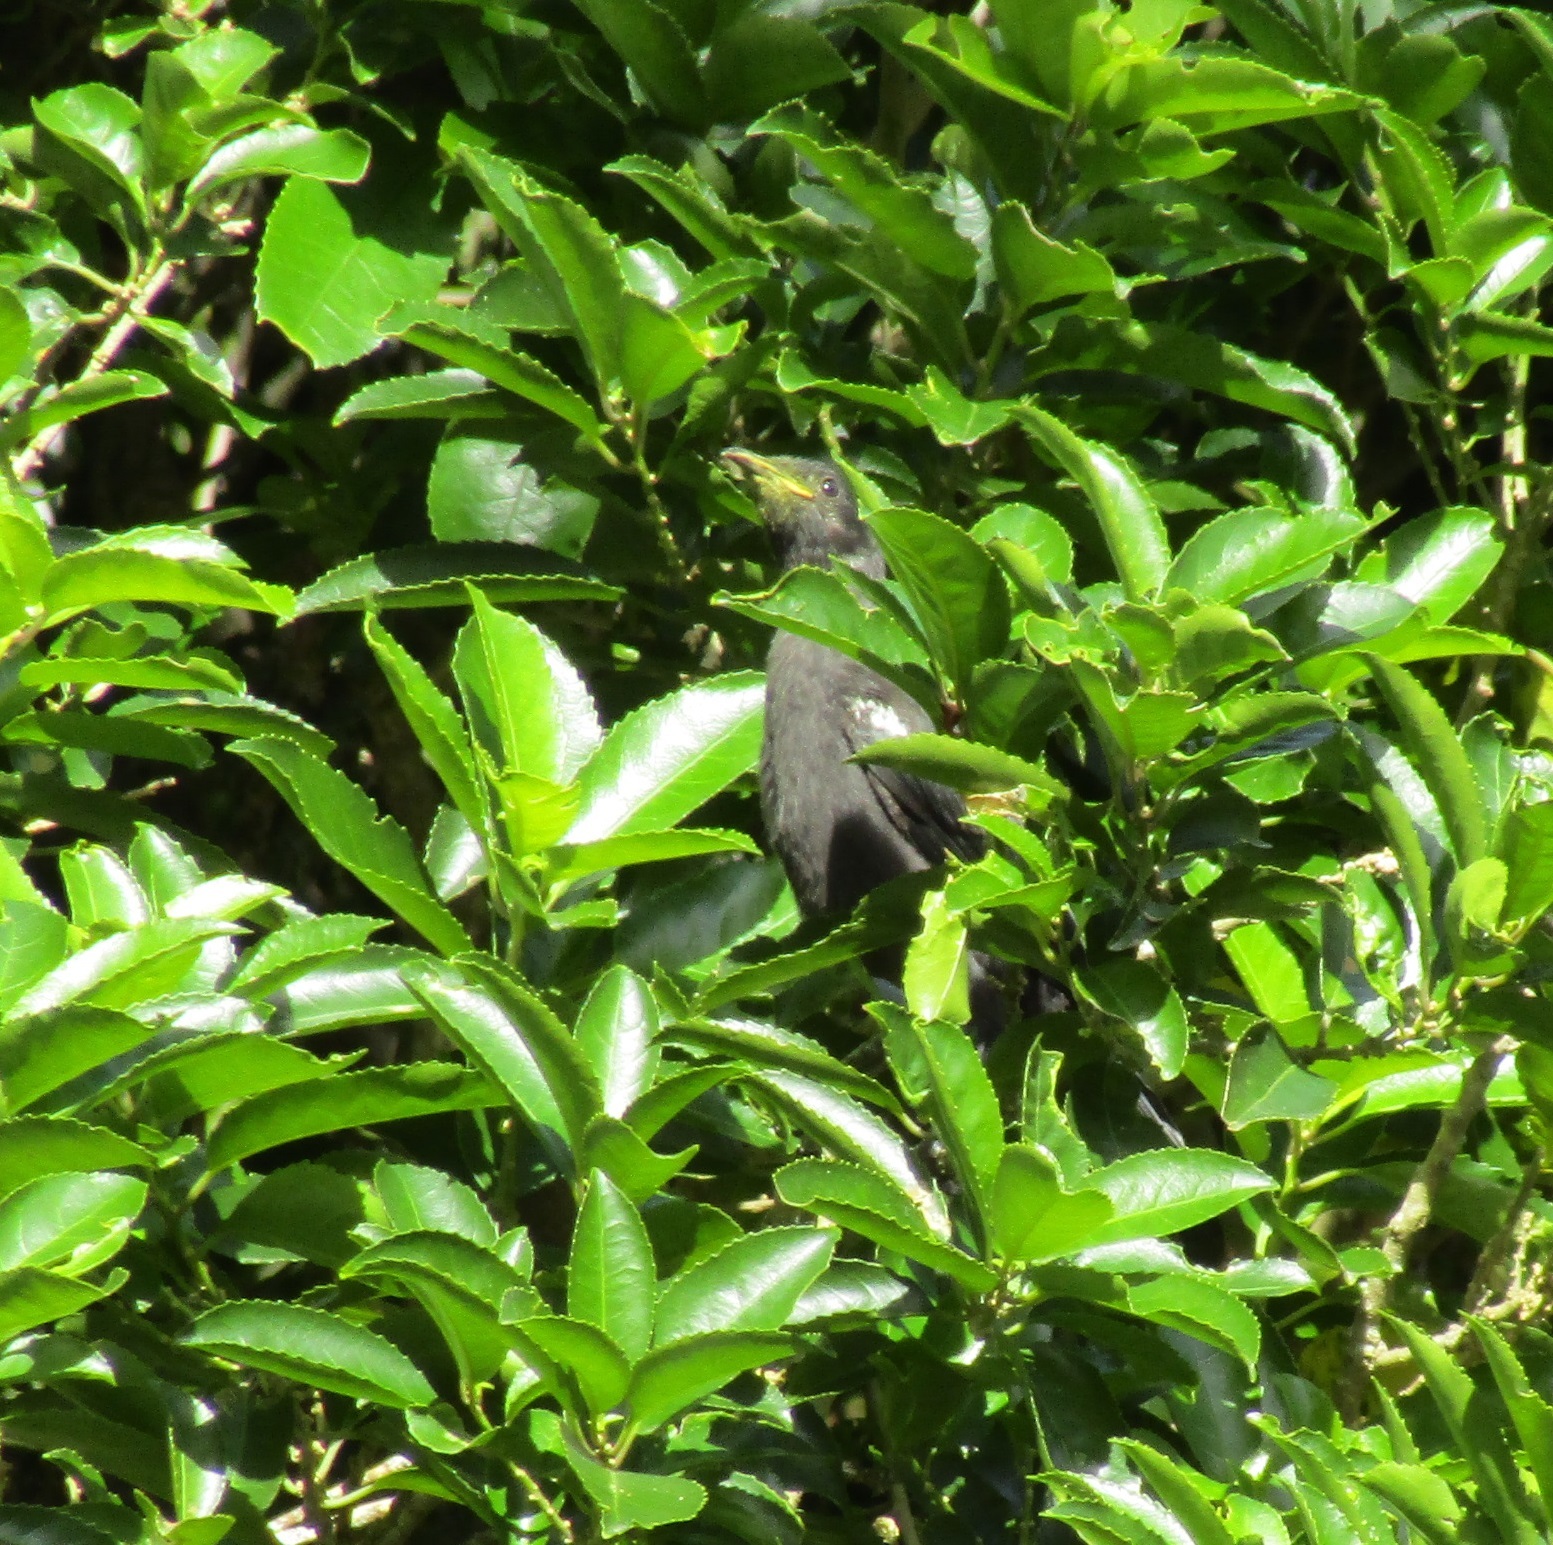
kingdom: Animalia
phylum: Chordata
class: Aves
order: Passeriformes
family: Meliphagidae
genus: Prosthemadera
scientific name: Prosthemadera novaeseelandiae
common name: Tui
